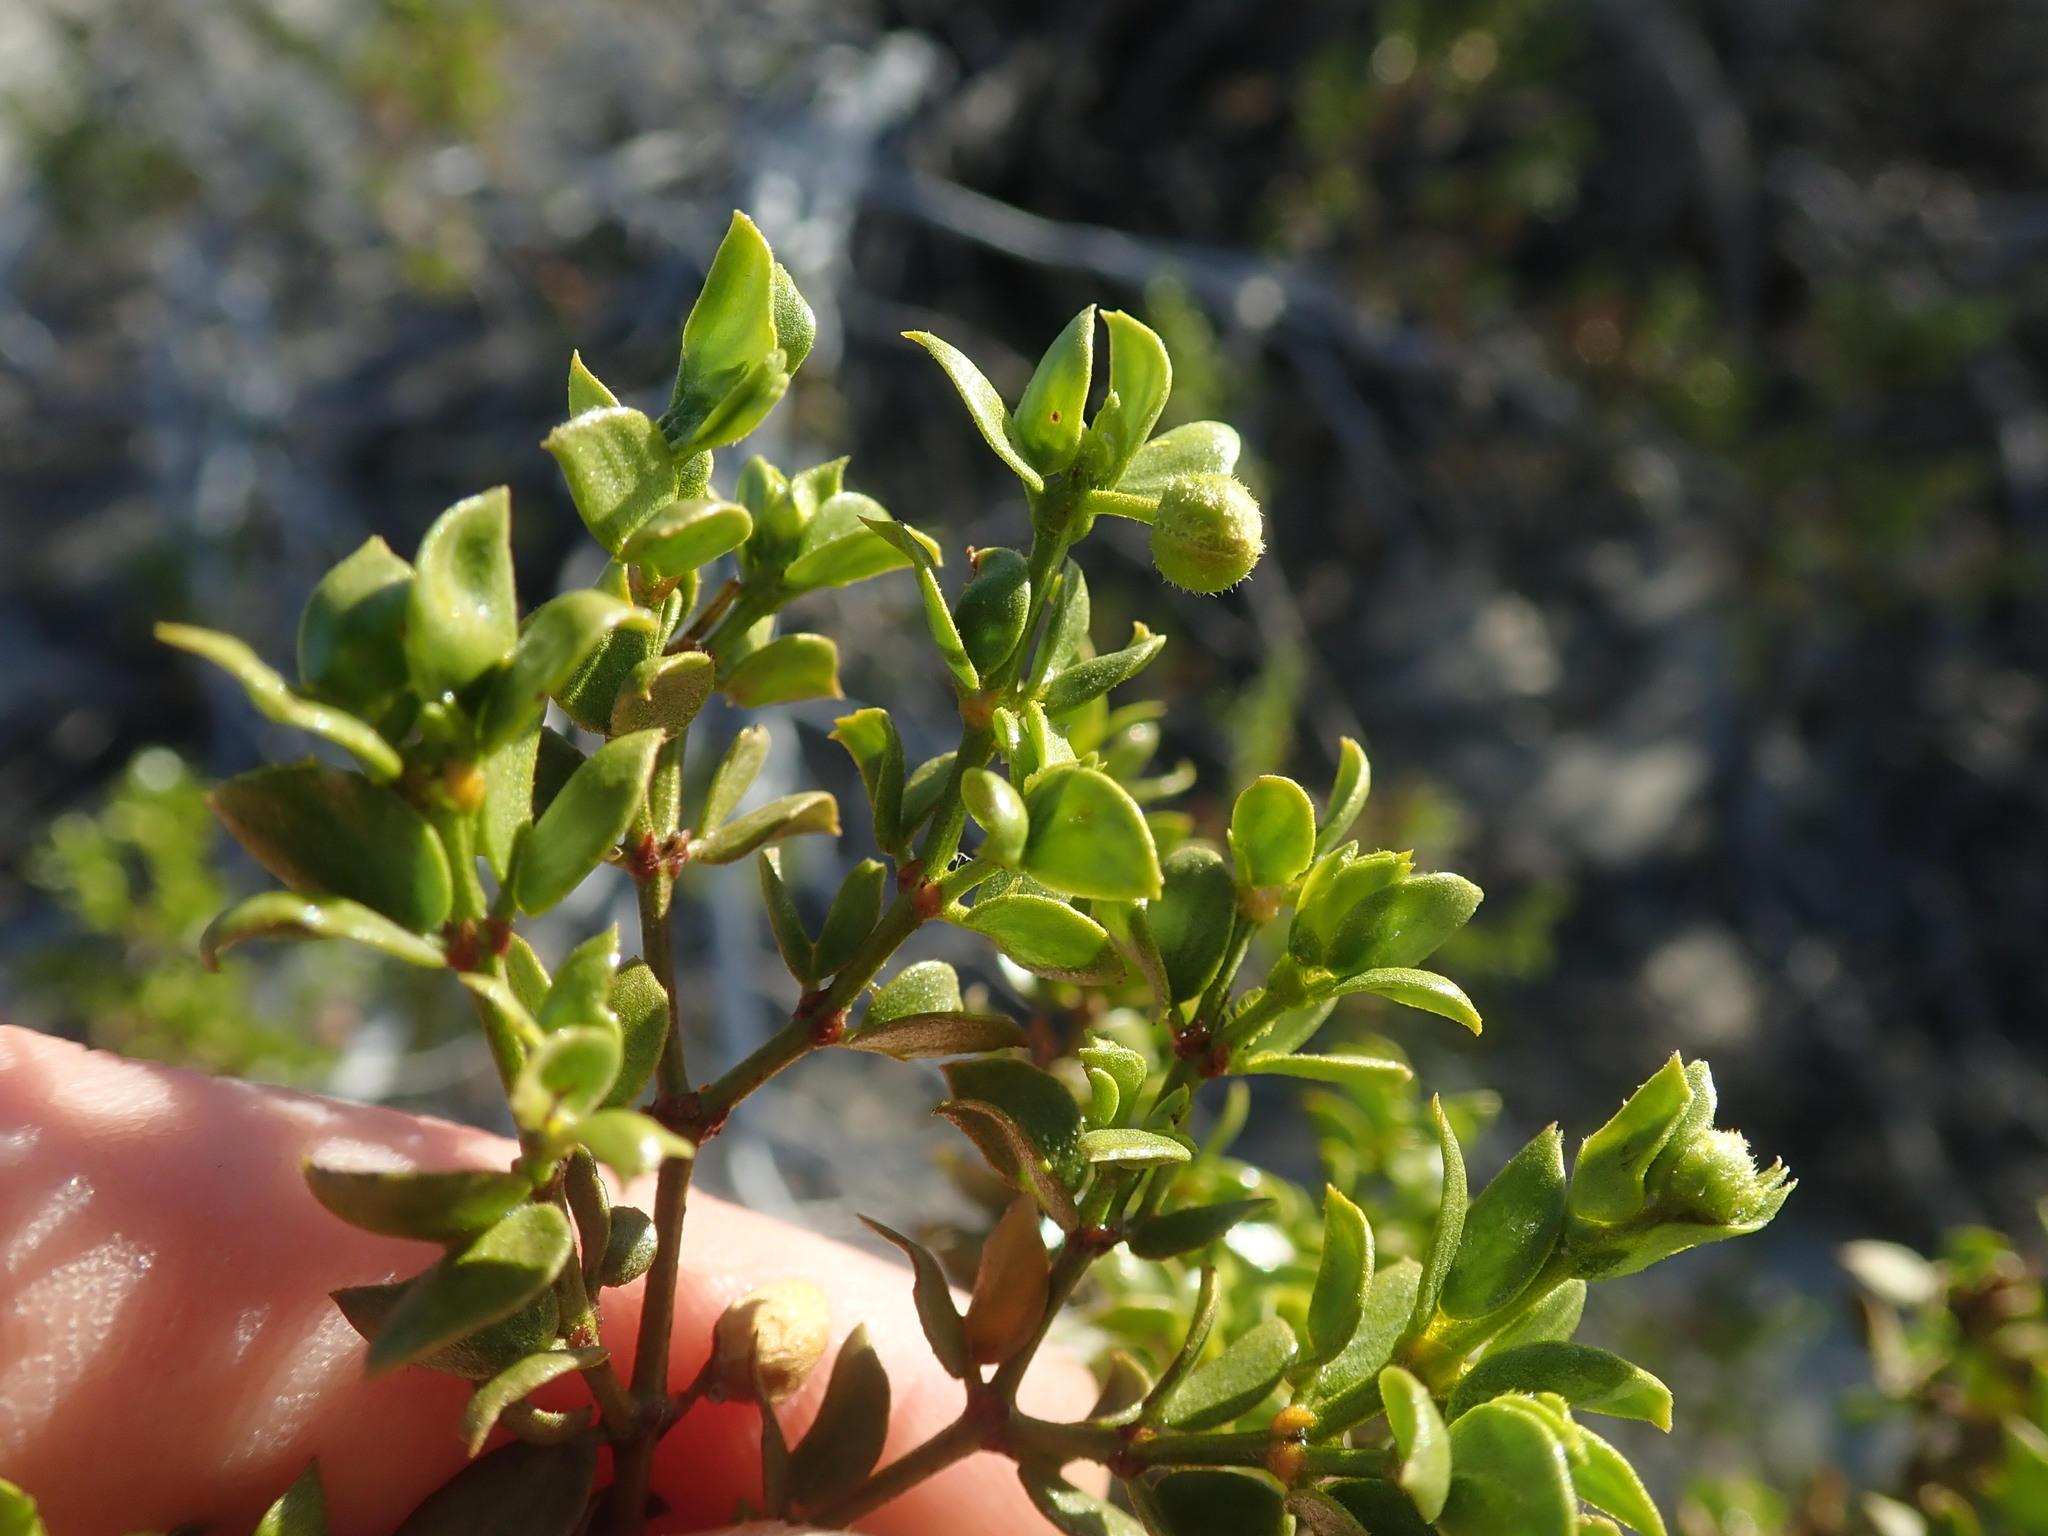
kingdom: Plantae
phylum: Tracheophyta
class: Magnoliopsida
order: Zygophyllales
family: Zygophyllaceae
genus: Larrea
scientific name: Larrea tridentata
